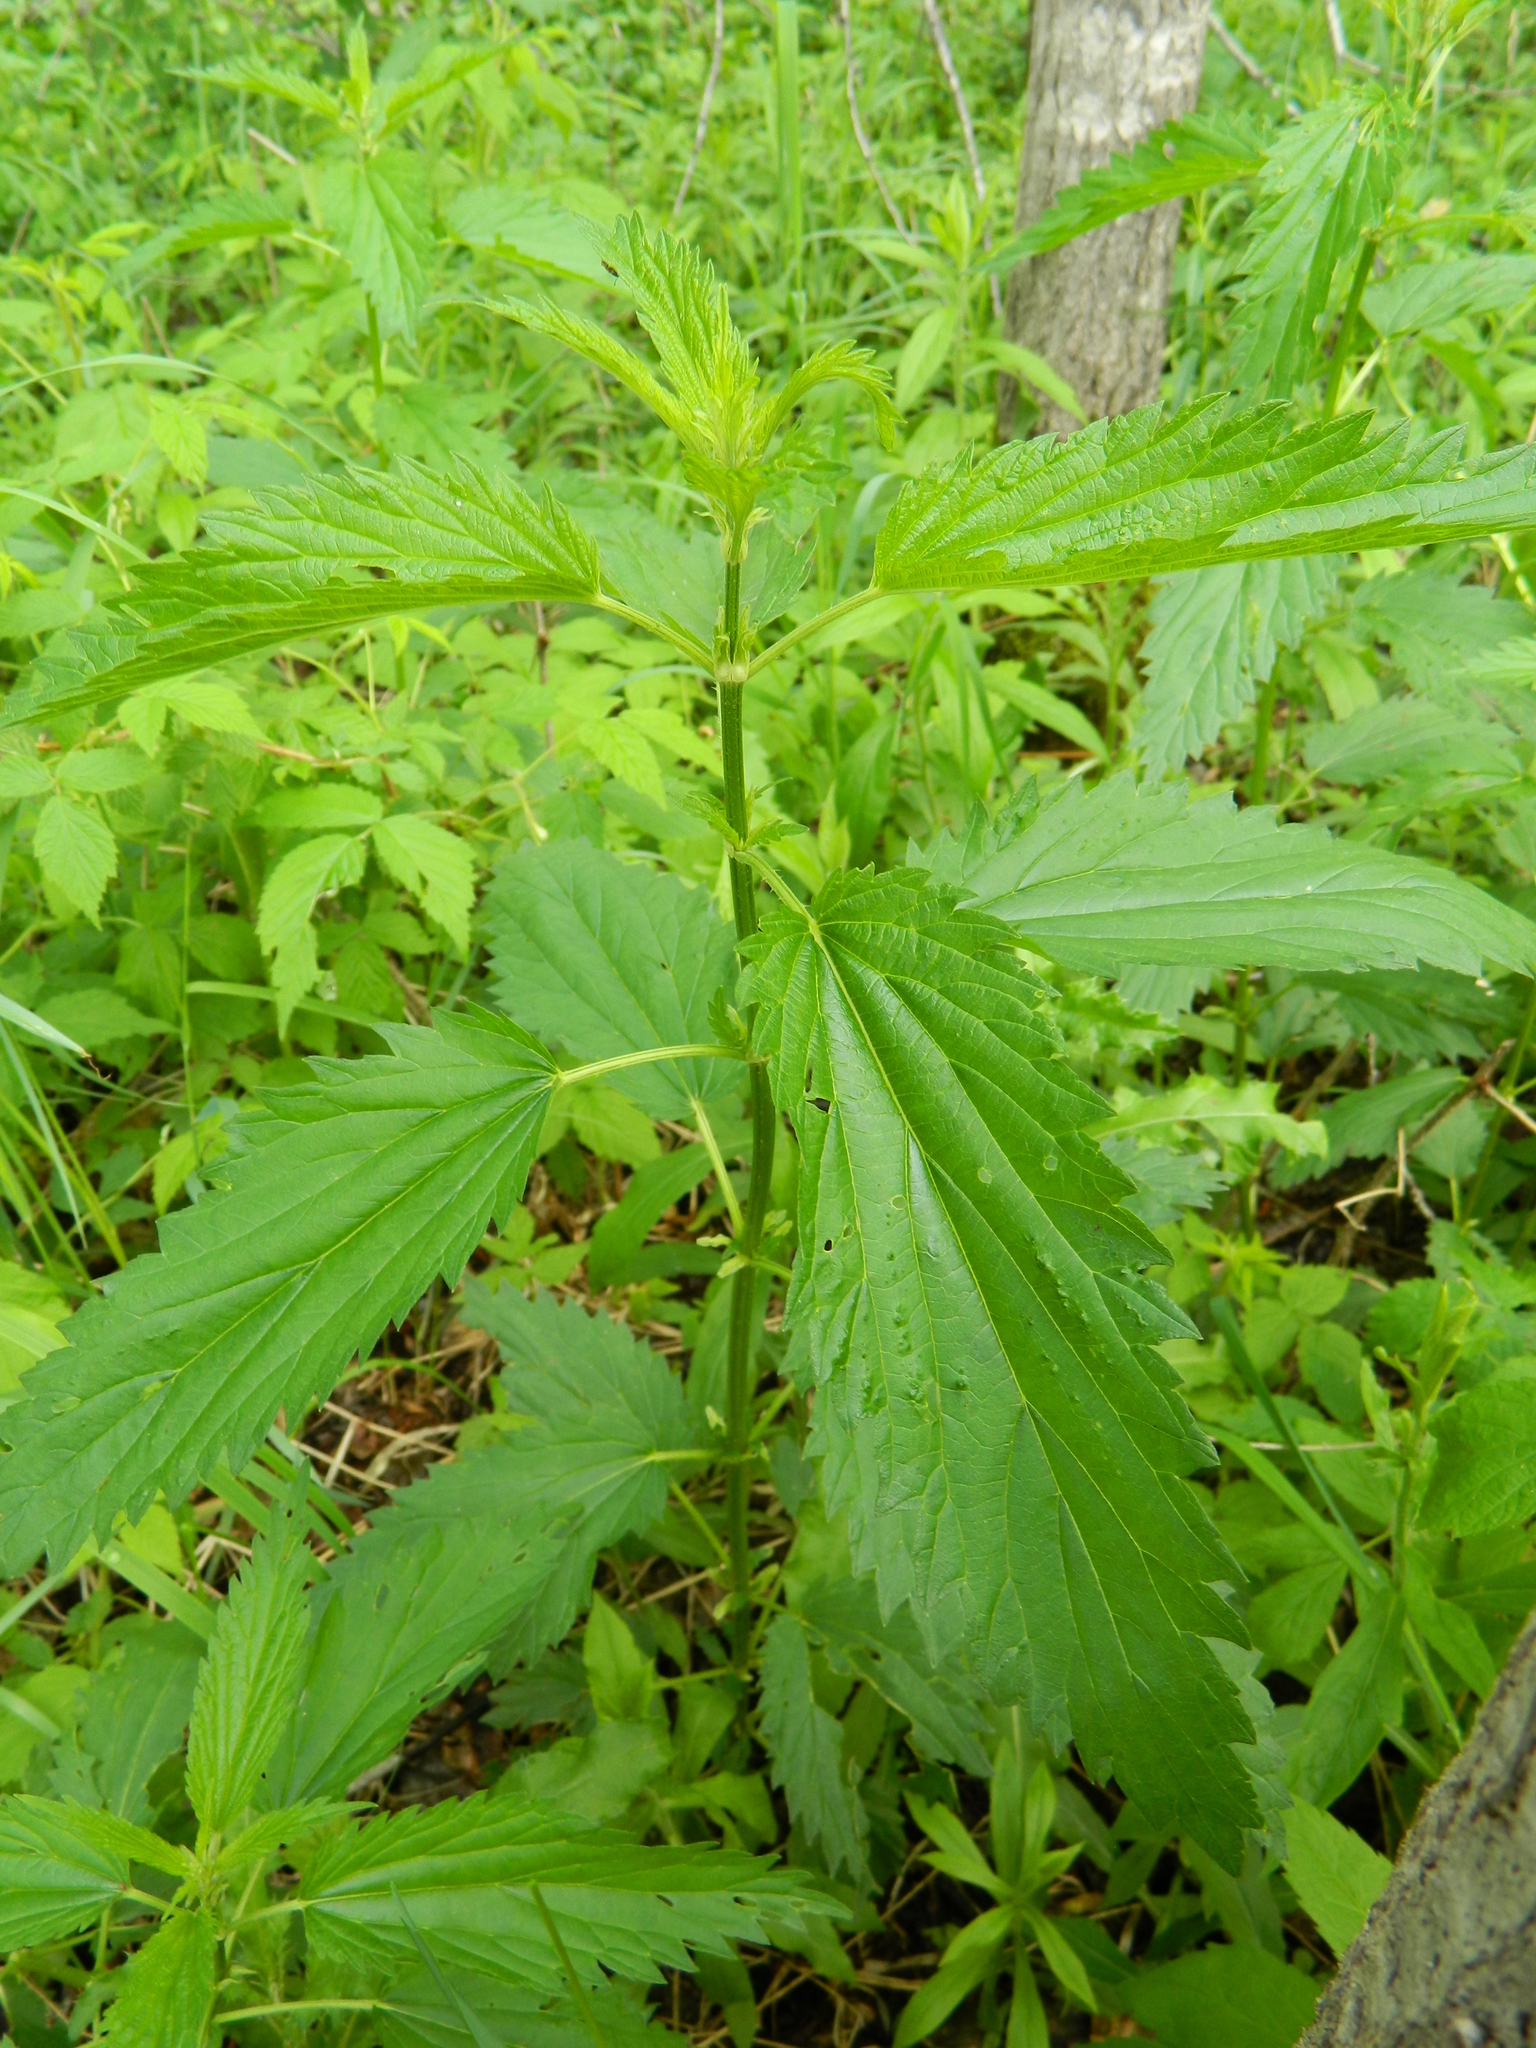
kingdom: Plantae
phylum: Tracheophyta
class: Magnoliopsida
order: Rosales
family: Urticaceae
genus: Urtica
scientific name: Urtica dioica
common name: Common nettle
